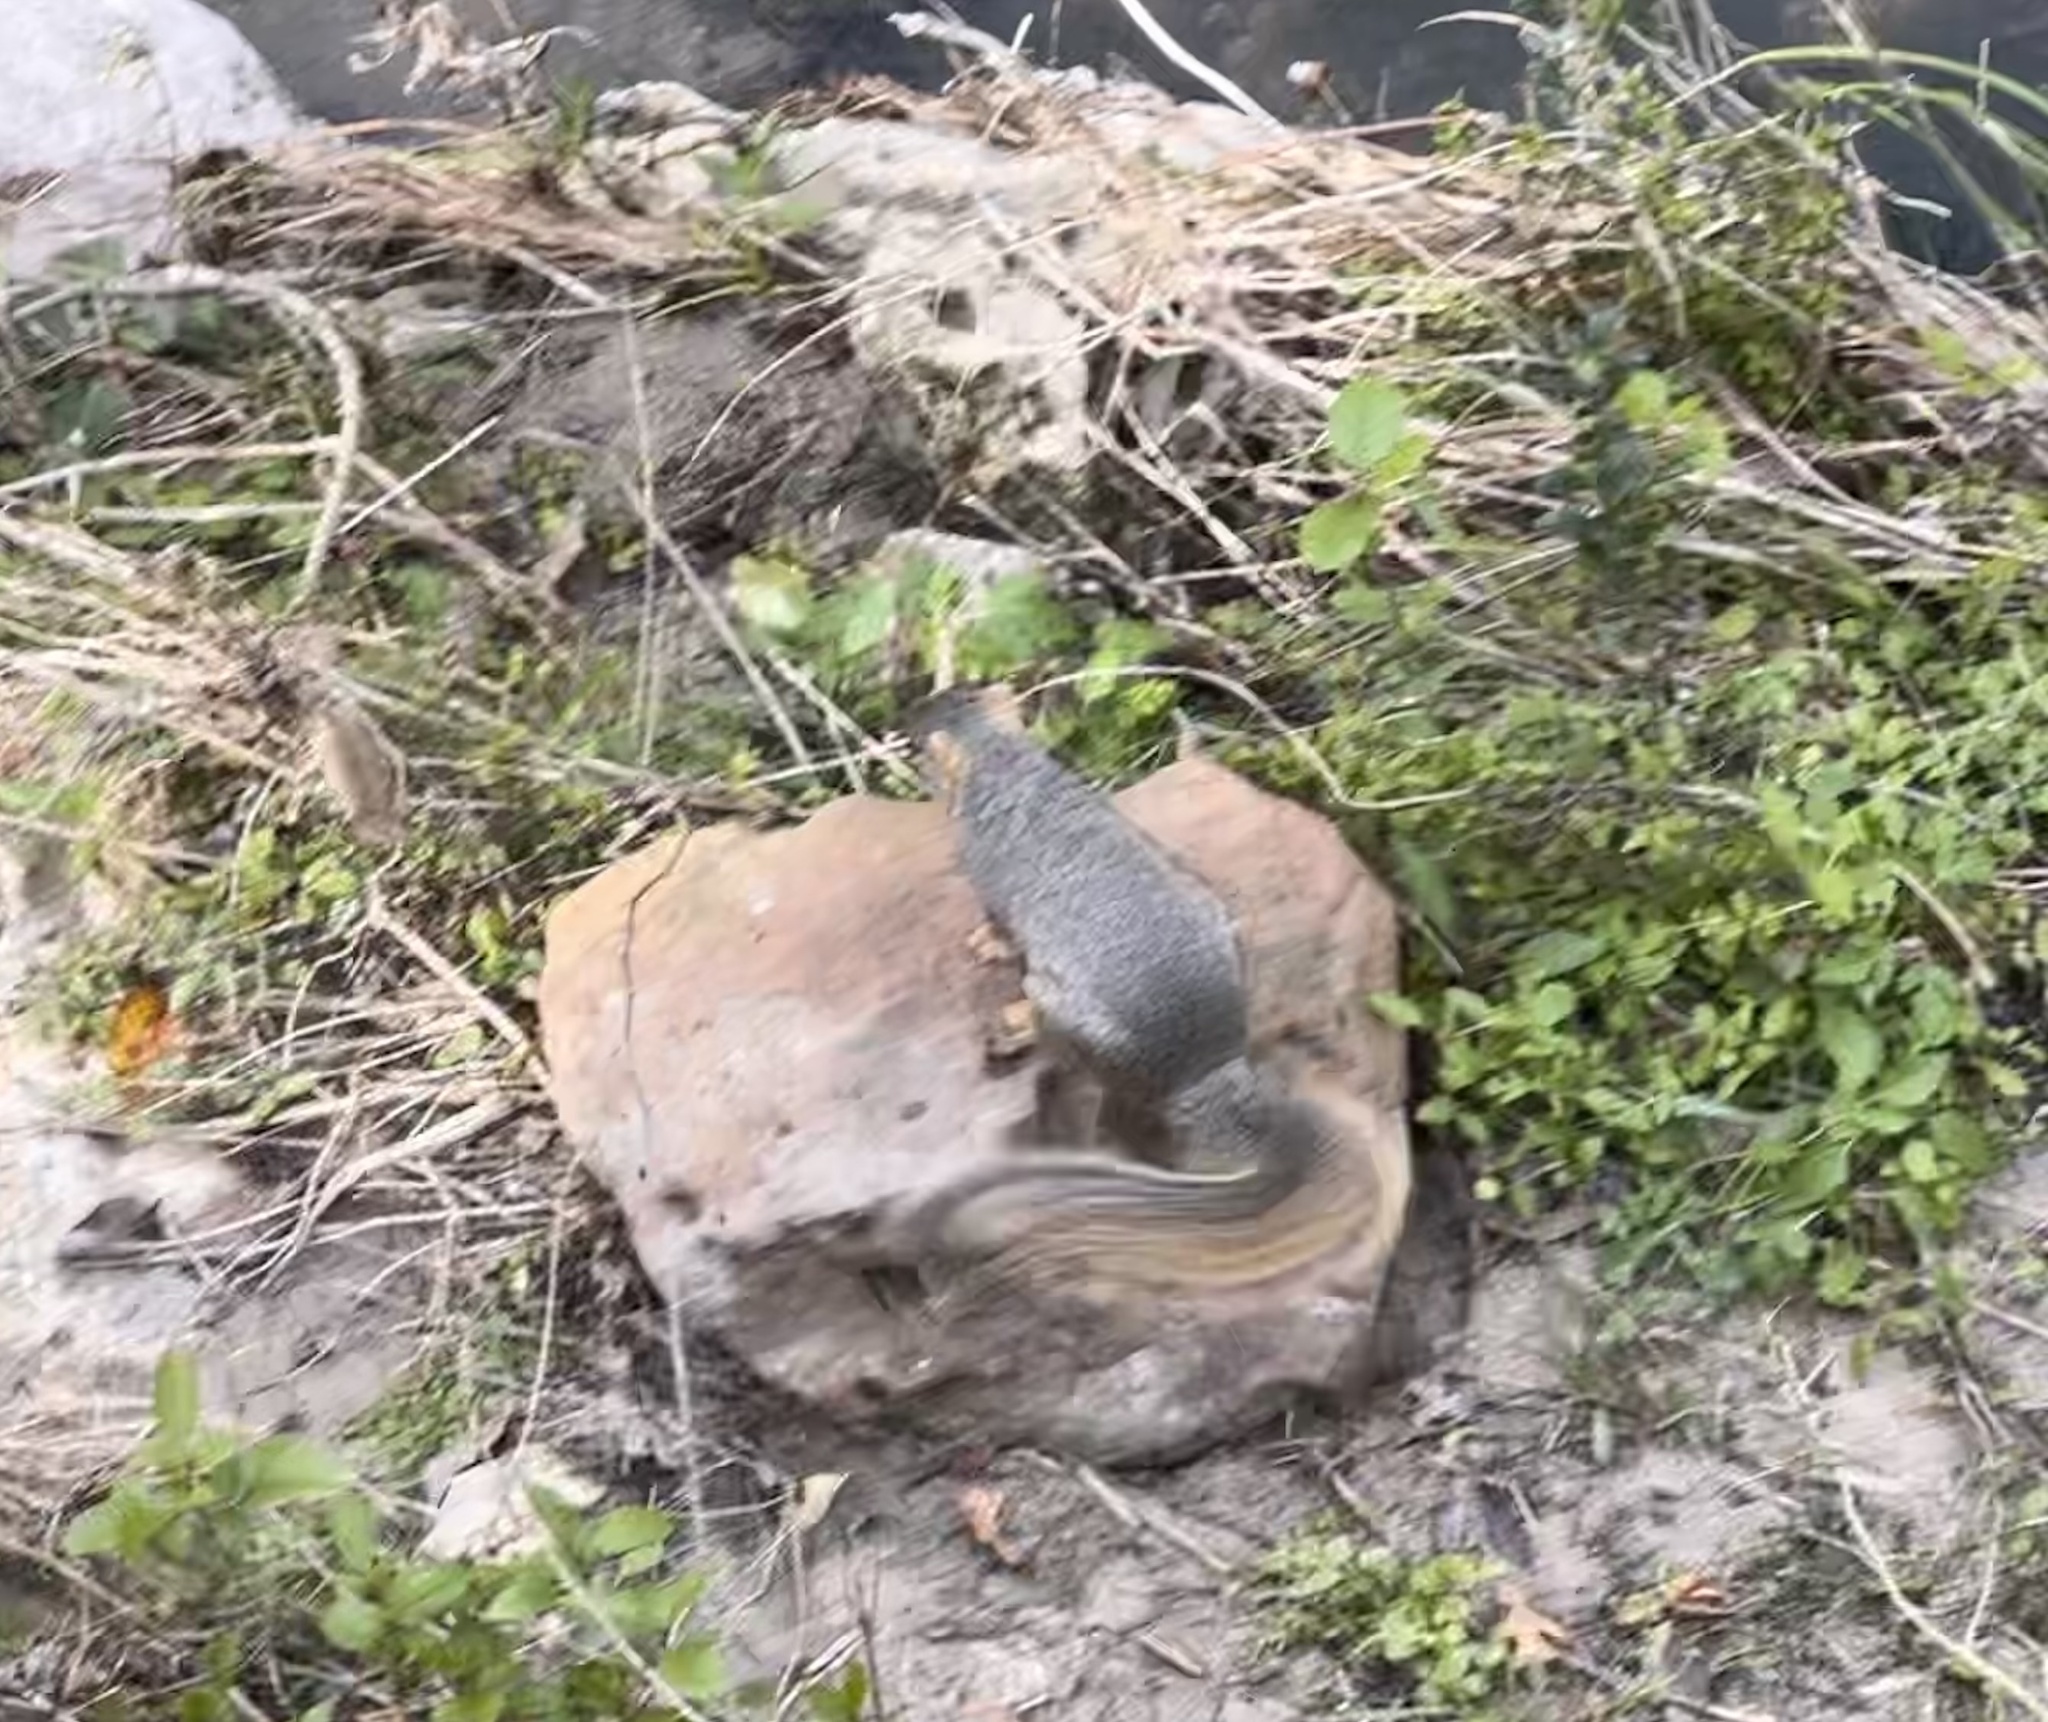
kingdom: Animalia
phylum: Chordata
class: Mammalia
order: Rodentia
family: Sciuridae
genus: Sciurus
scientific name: Sciurus niger
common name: Fox squirrel
